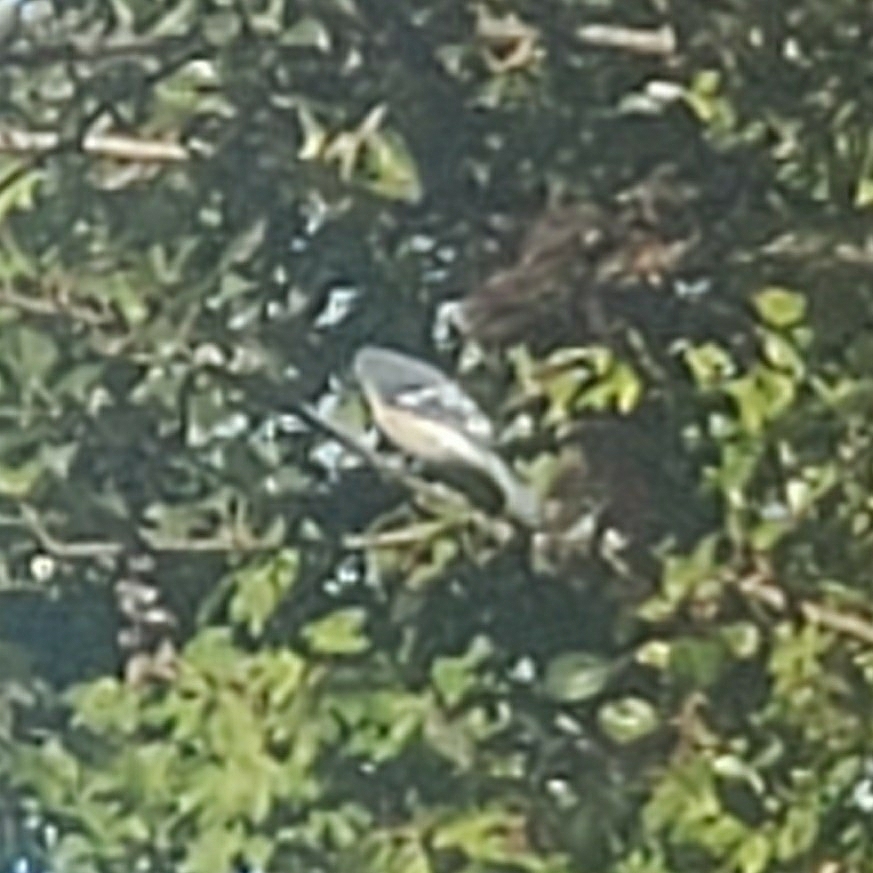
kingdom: Animalia
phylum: Chordata
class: Aves
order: Passeriformes
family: Corvidae
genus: Cyanocitta
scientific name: Cyanocitta cristata
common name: Blue jay
